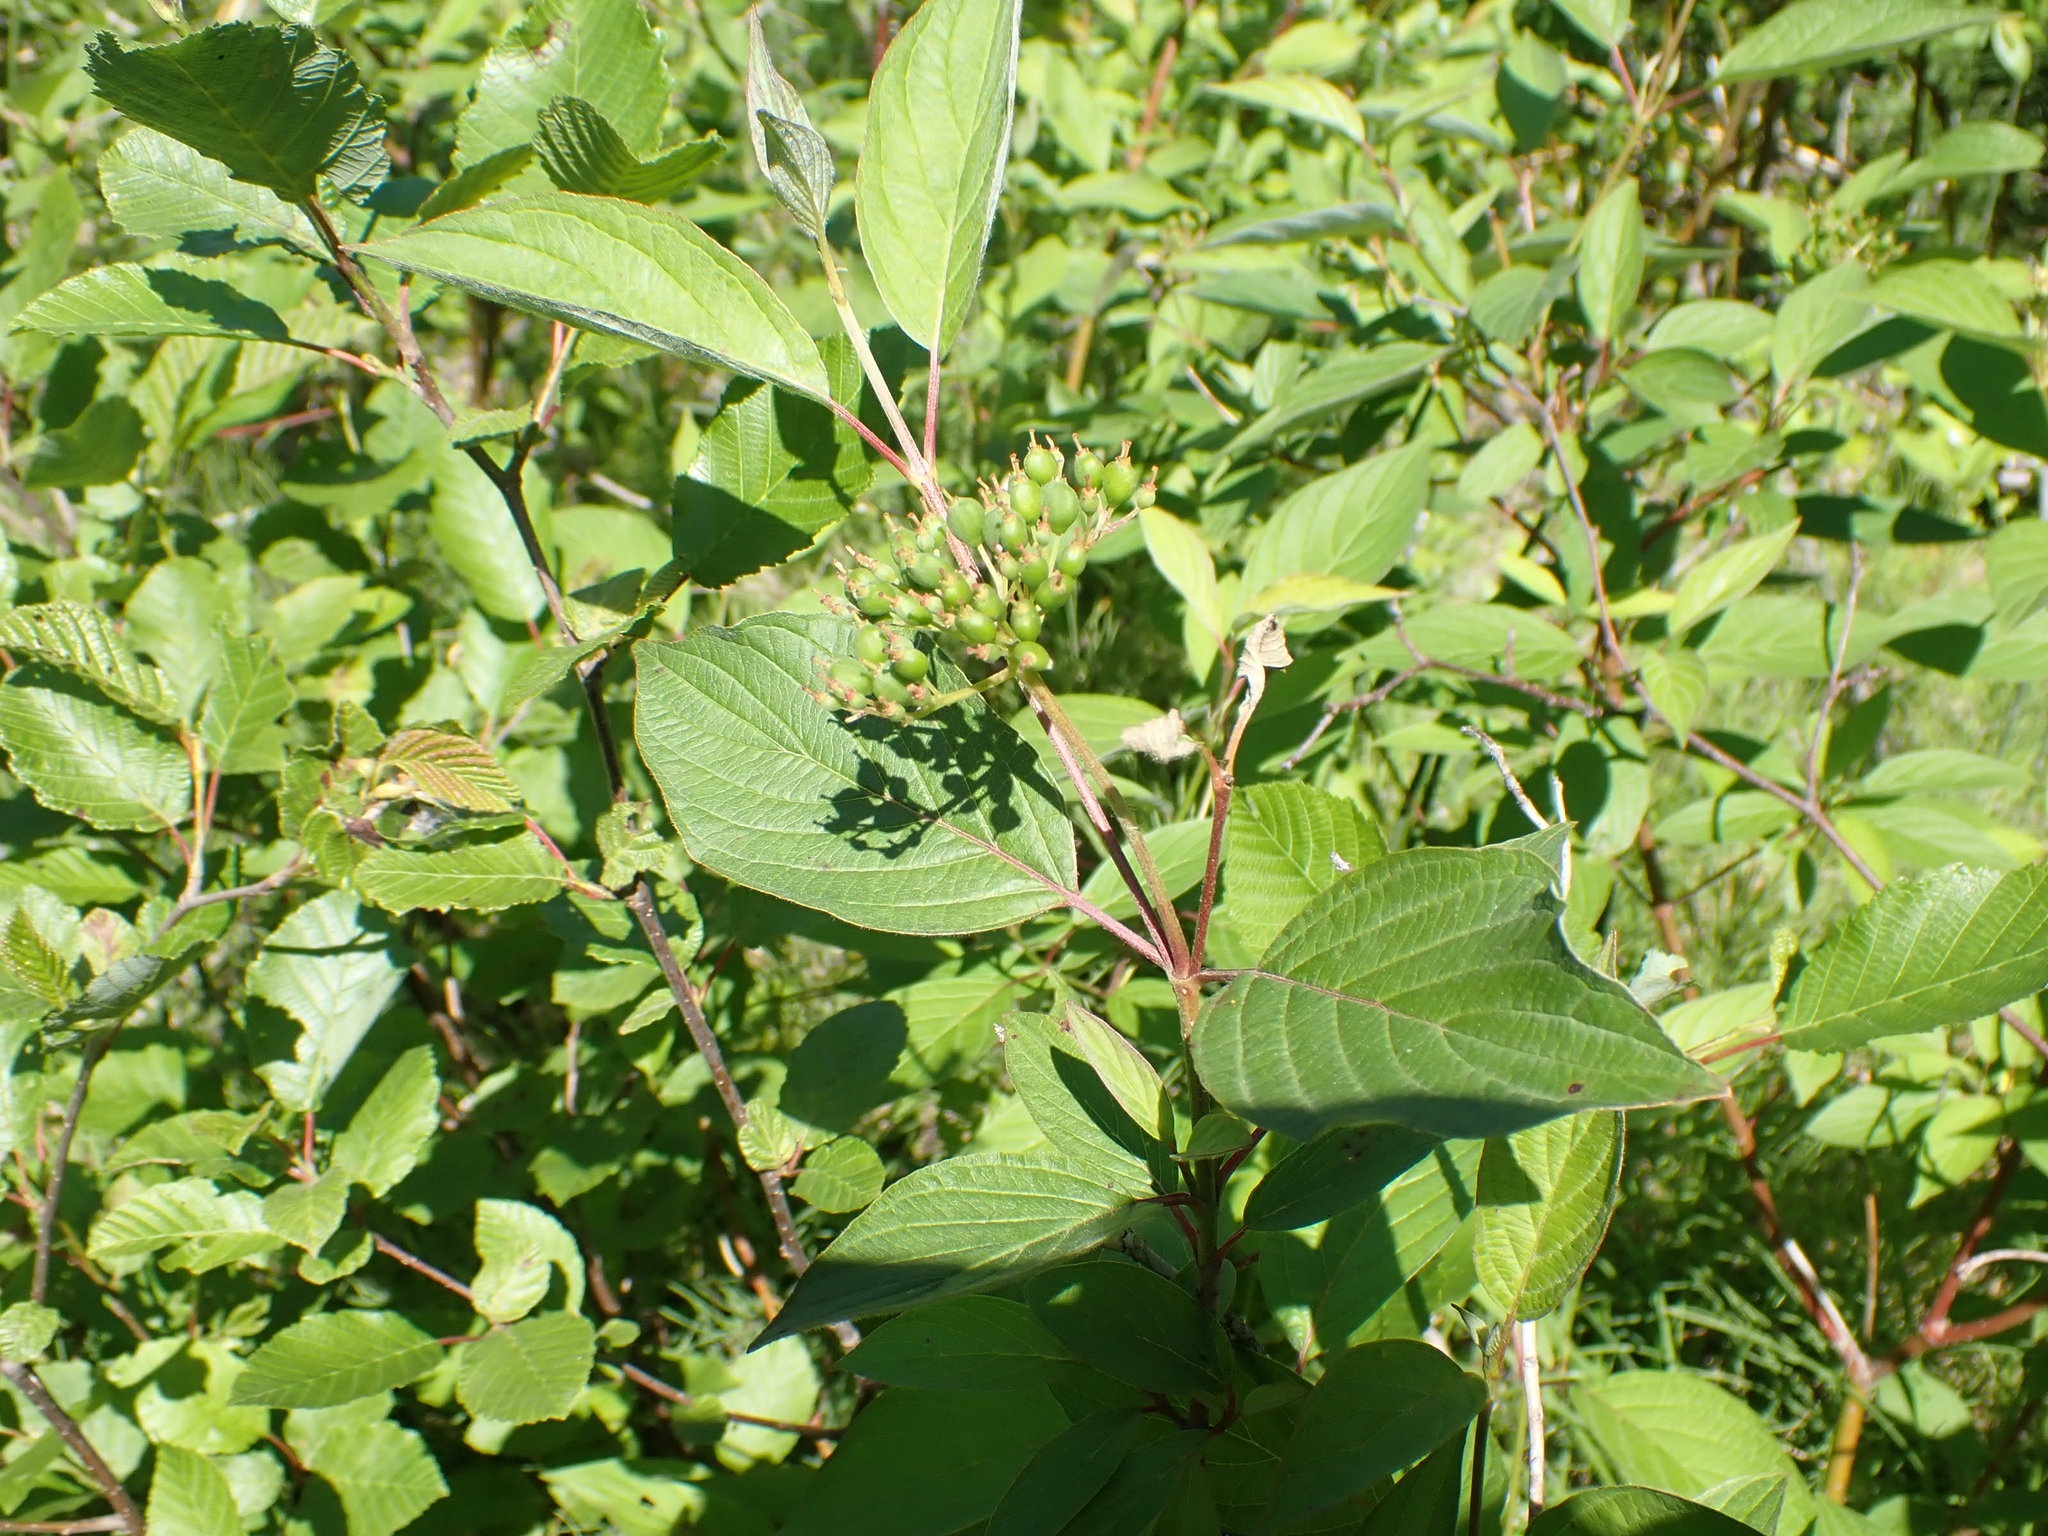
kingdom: Plantae
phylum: Tracheophyta
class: Magnoliopsida
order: Cornales
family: Cornaceae
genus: Cornus
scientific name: Cornus sericea
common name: Red-osier dogwood
